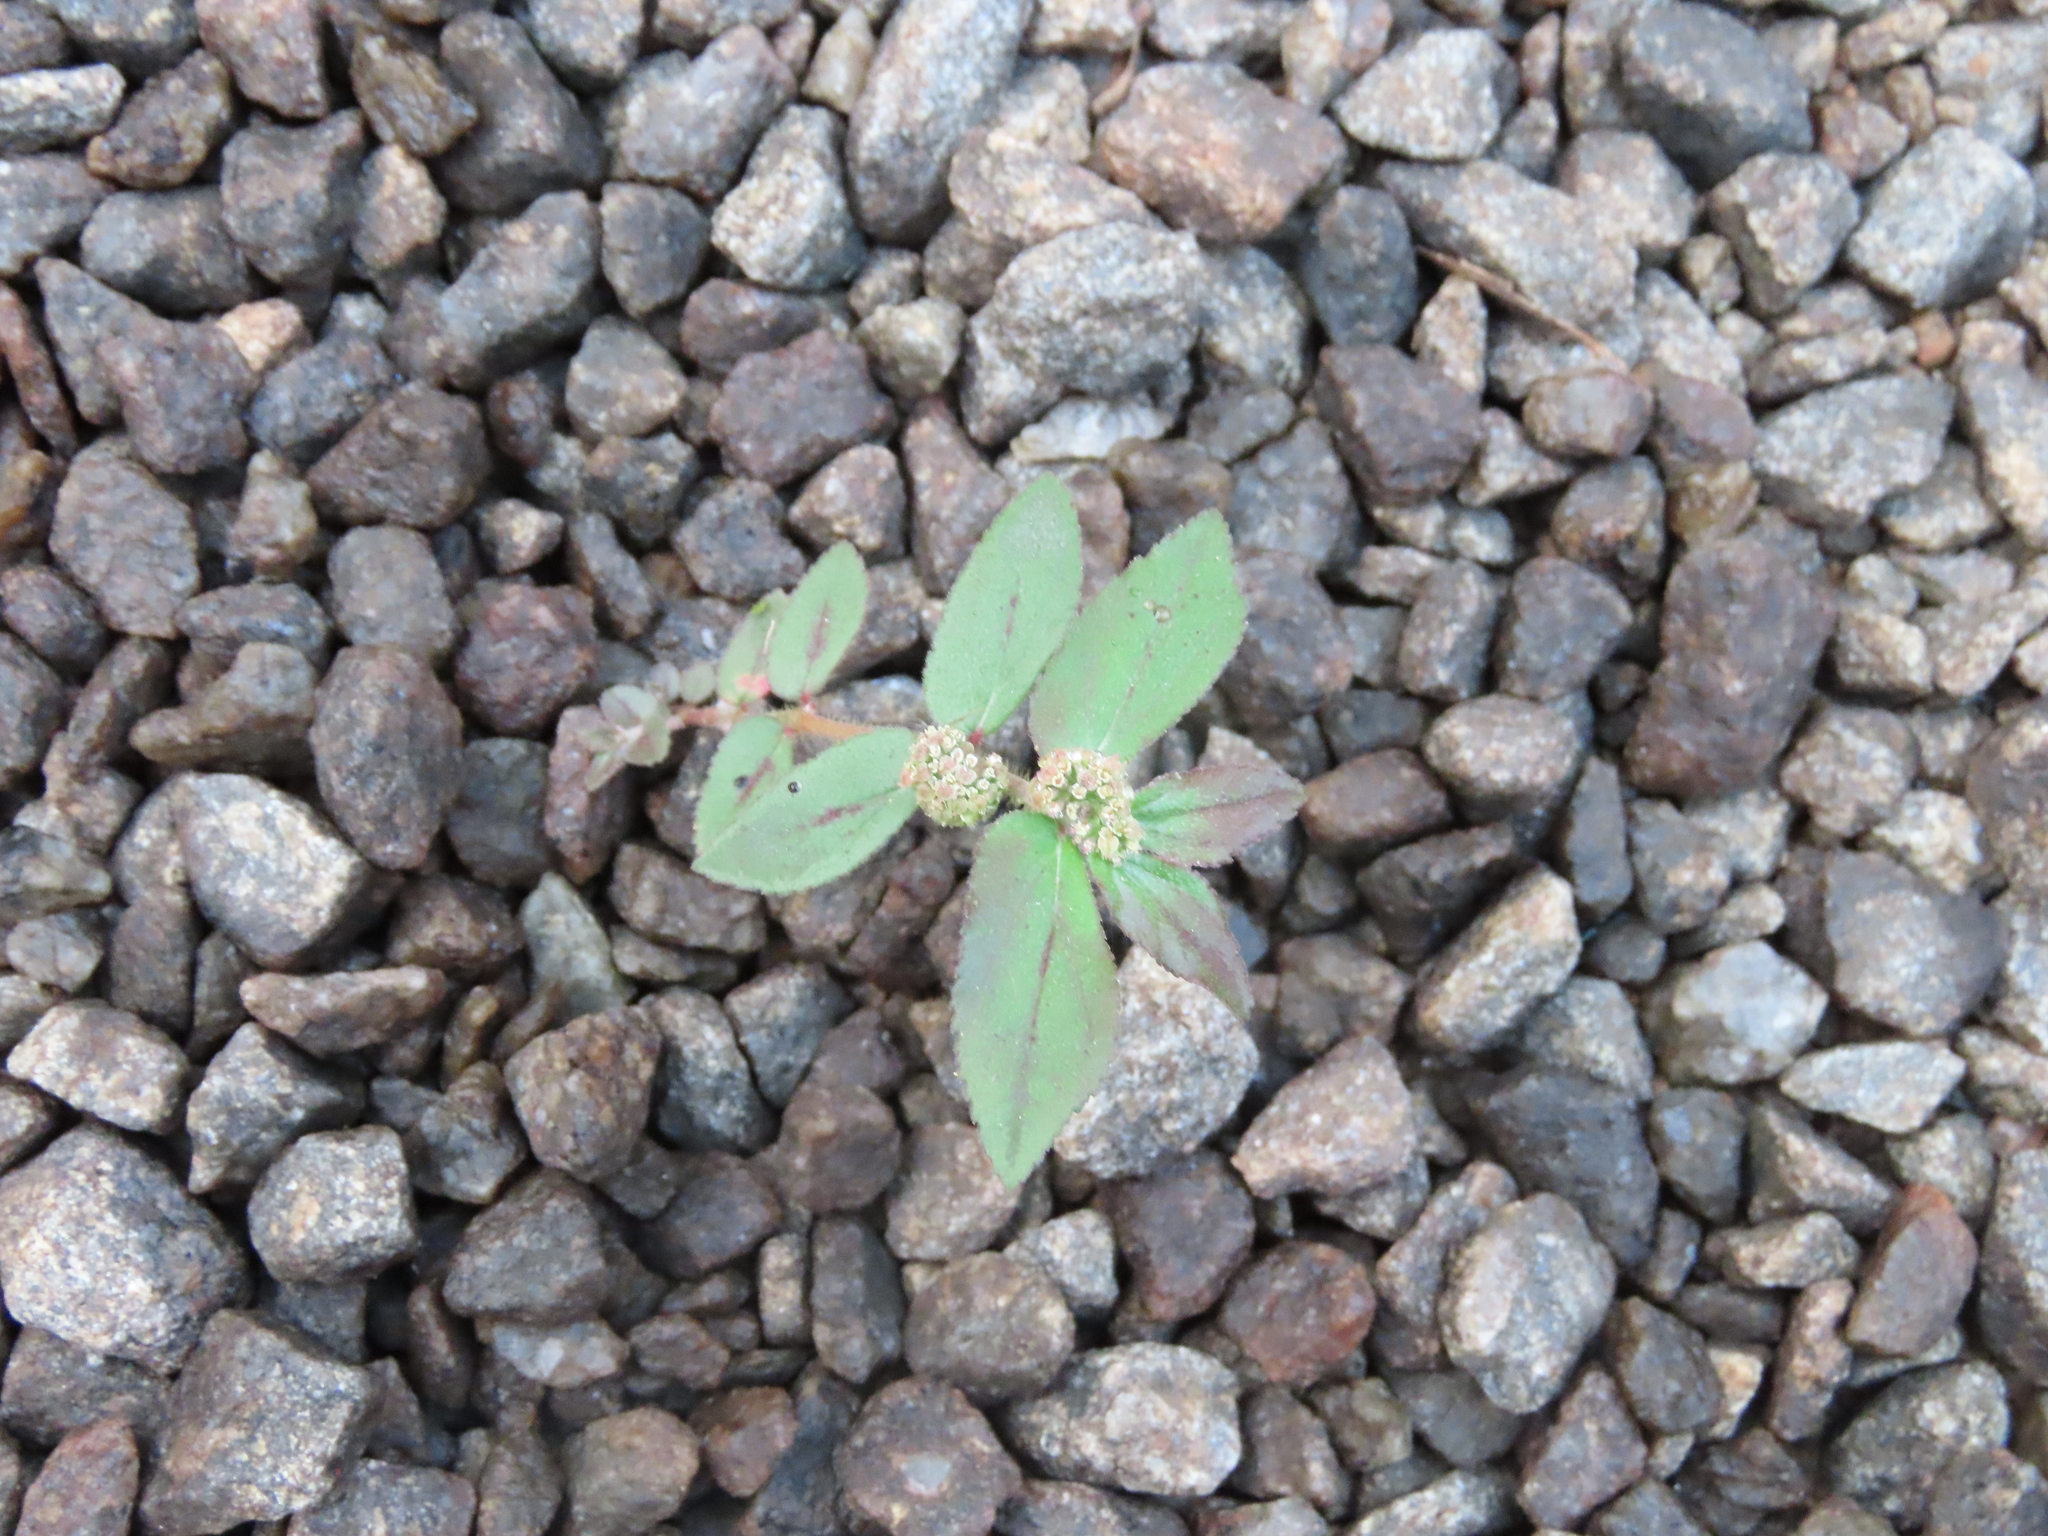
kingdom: Plantae
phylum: Tracheophyta
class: Magnoliopsida
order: Malpighiales
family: Euphorbiaceae
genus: Euphorbia
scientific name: Euphorbia hirta
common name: Pillpod sandmat
